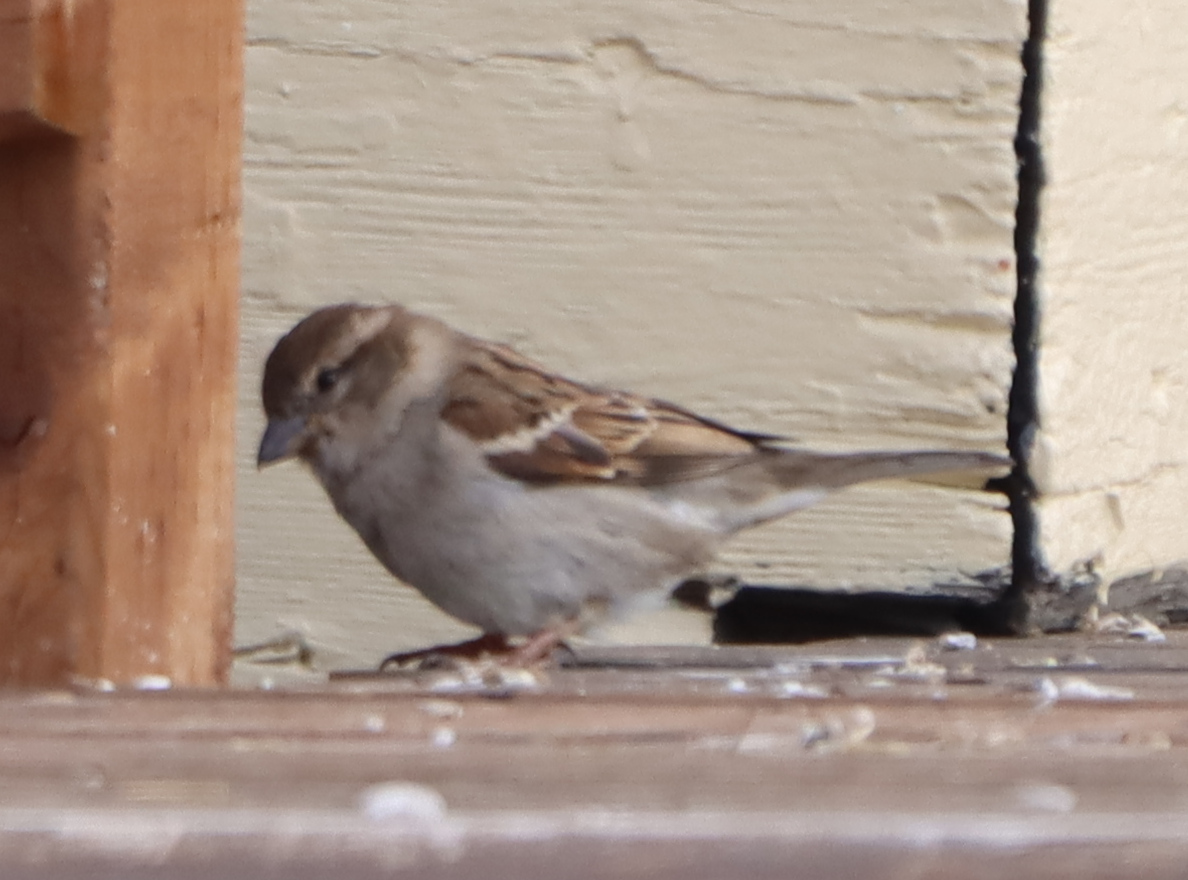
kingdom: Animalia
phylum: Chordata
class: Aves
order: Passeriformes
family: Passeridae
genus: Passer
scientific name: Passer domesticus
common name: House sparrow
